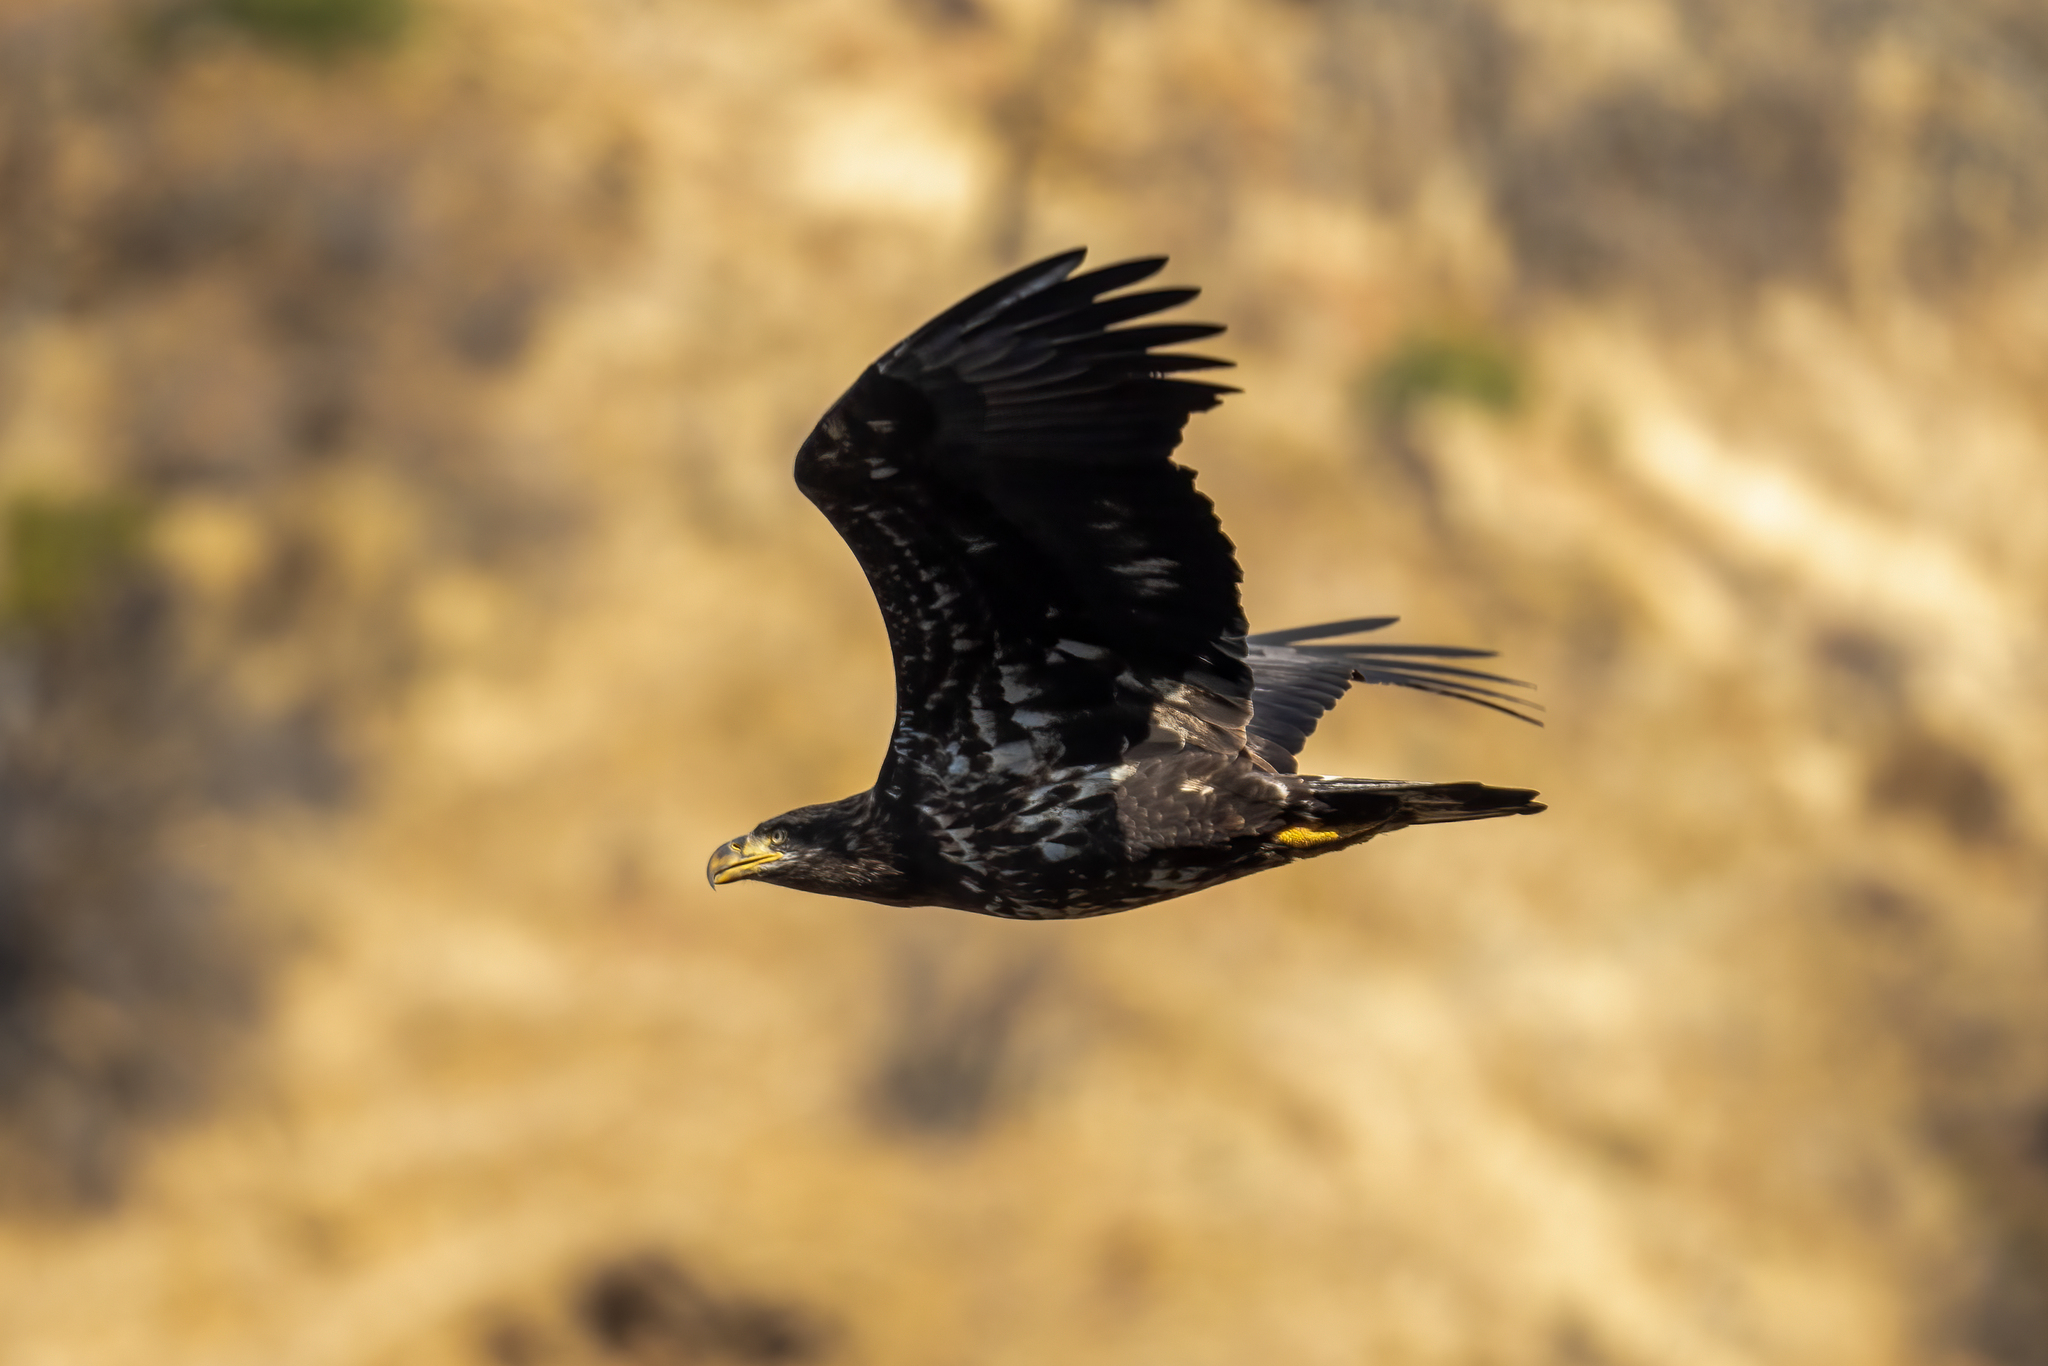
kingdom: Animalia
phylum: Chordata
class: Aves
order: Accipitriformes
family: Accipitridae
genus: Haliaeetus
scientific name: Haliaeetus leucocephalus
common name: Bald eagle
